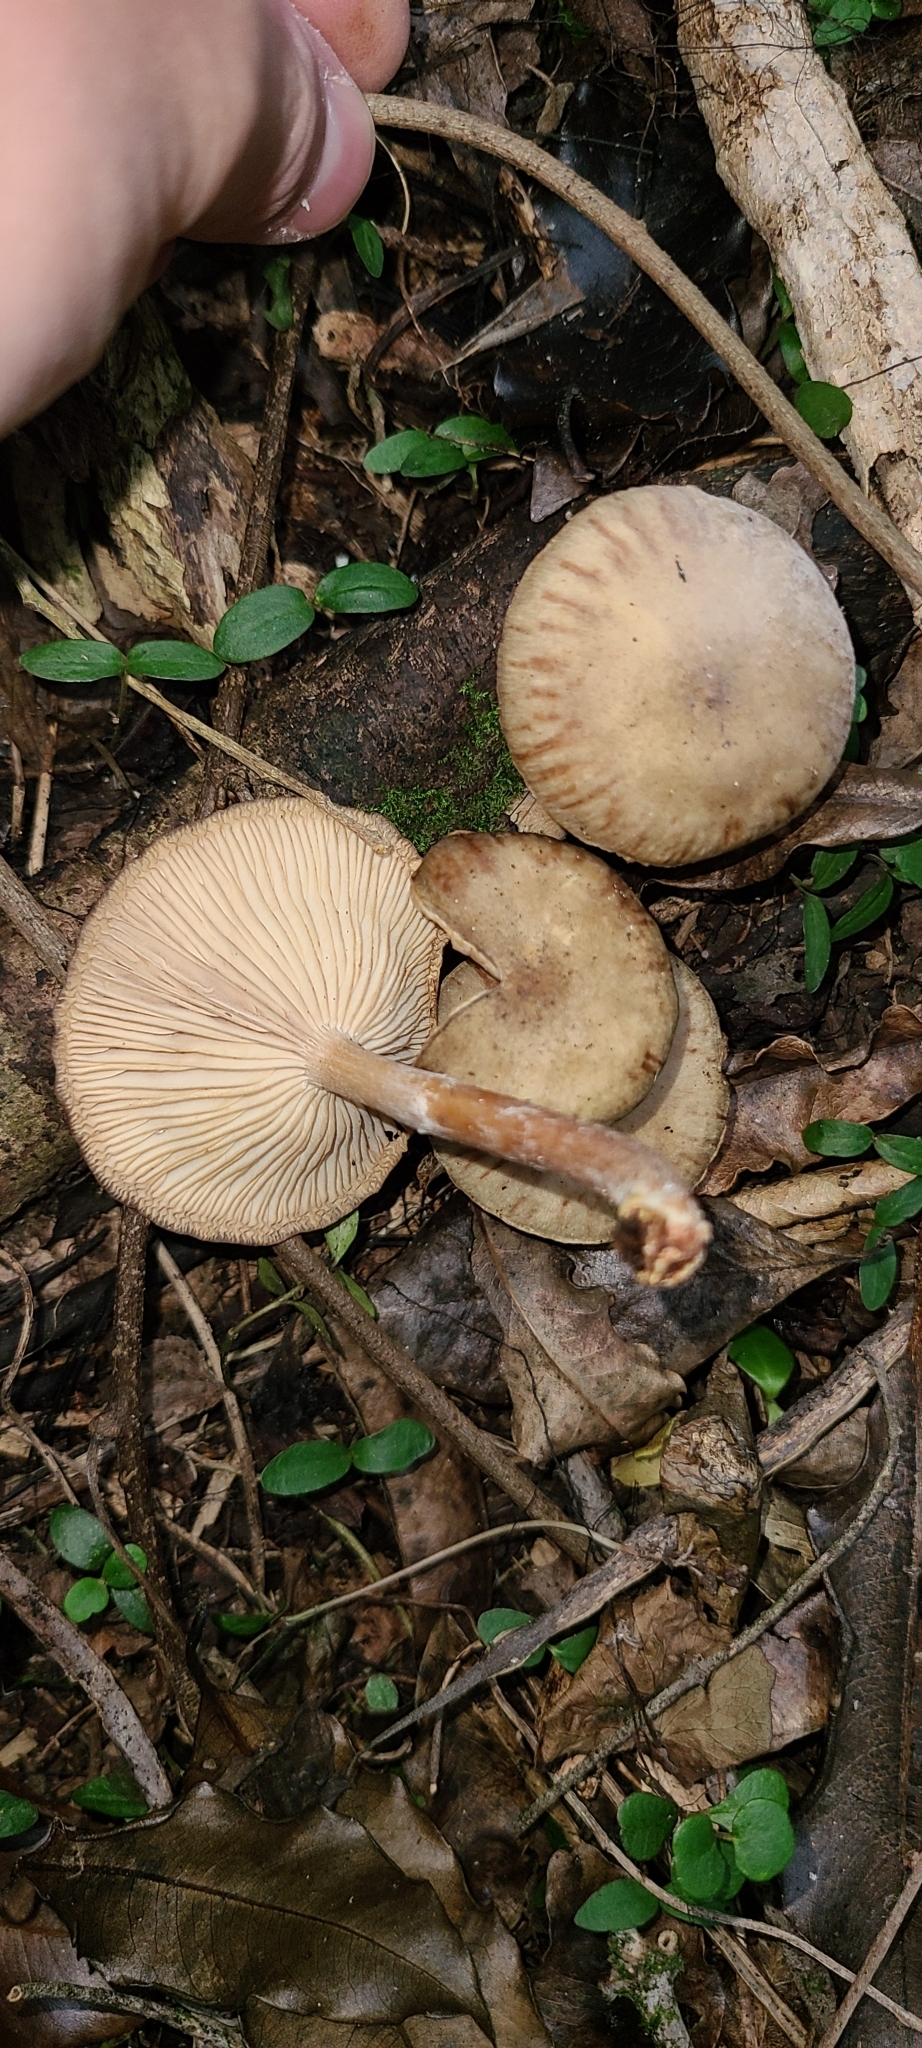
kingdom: Fungi
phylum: Basidiomycota
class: Agaricomycetes
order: Agaricales
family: Physalacriaceae
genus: Armillaria
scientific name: Armillaria novae-zelandiae
